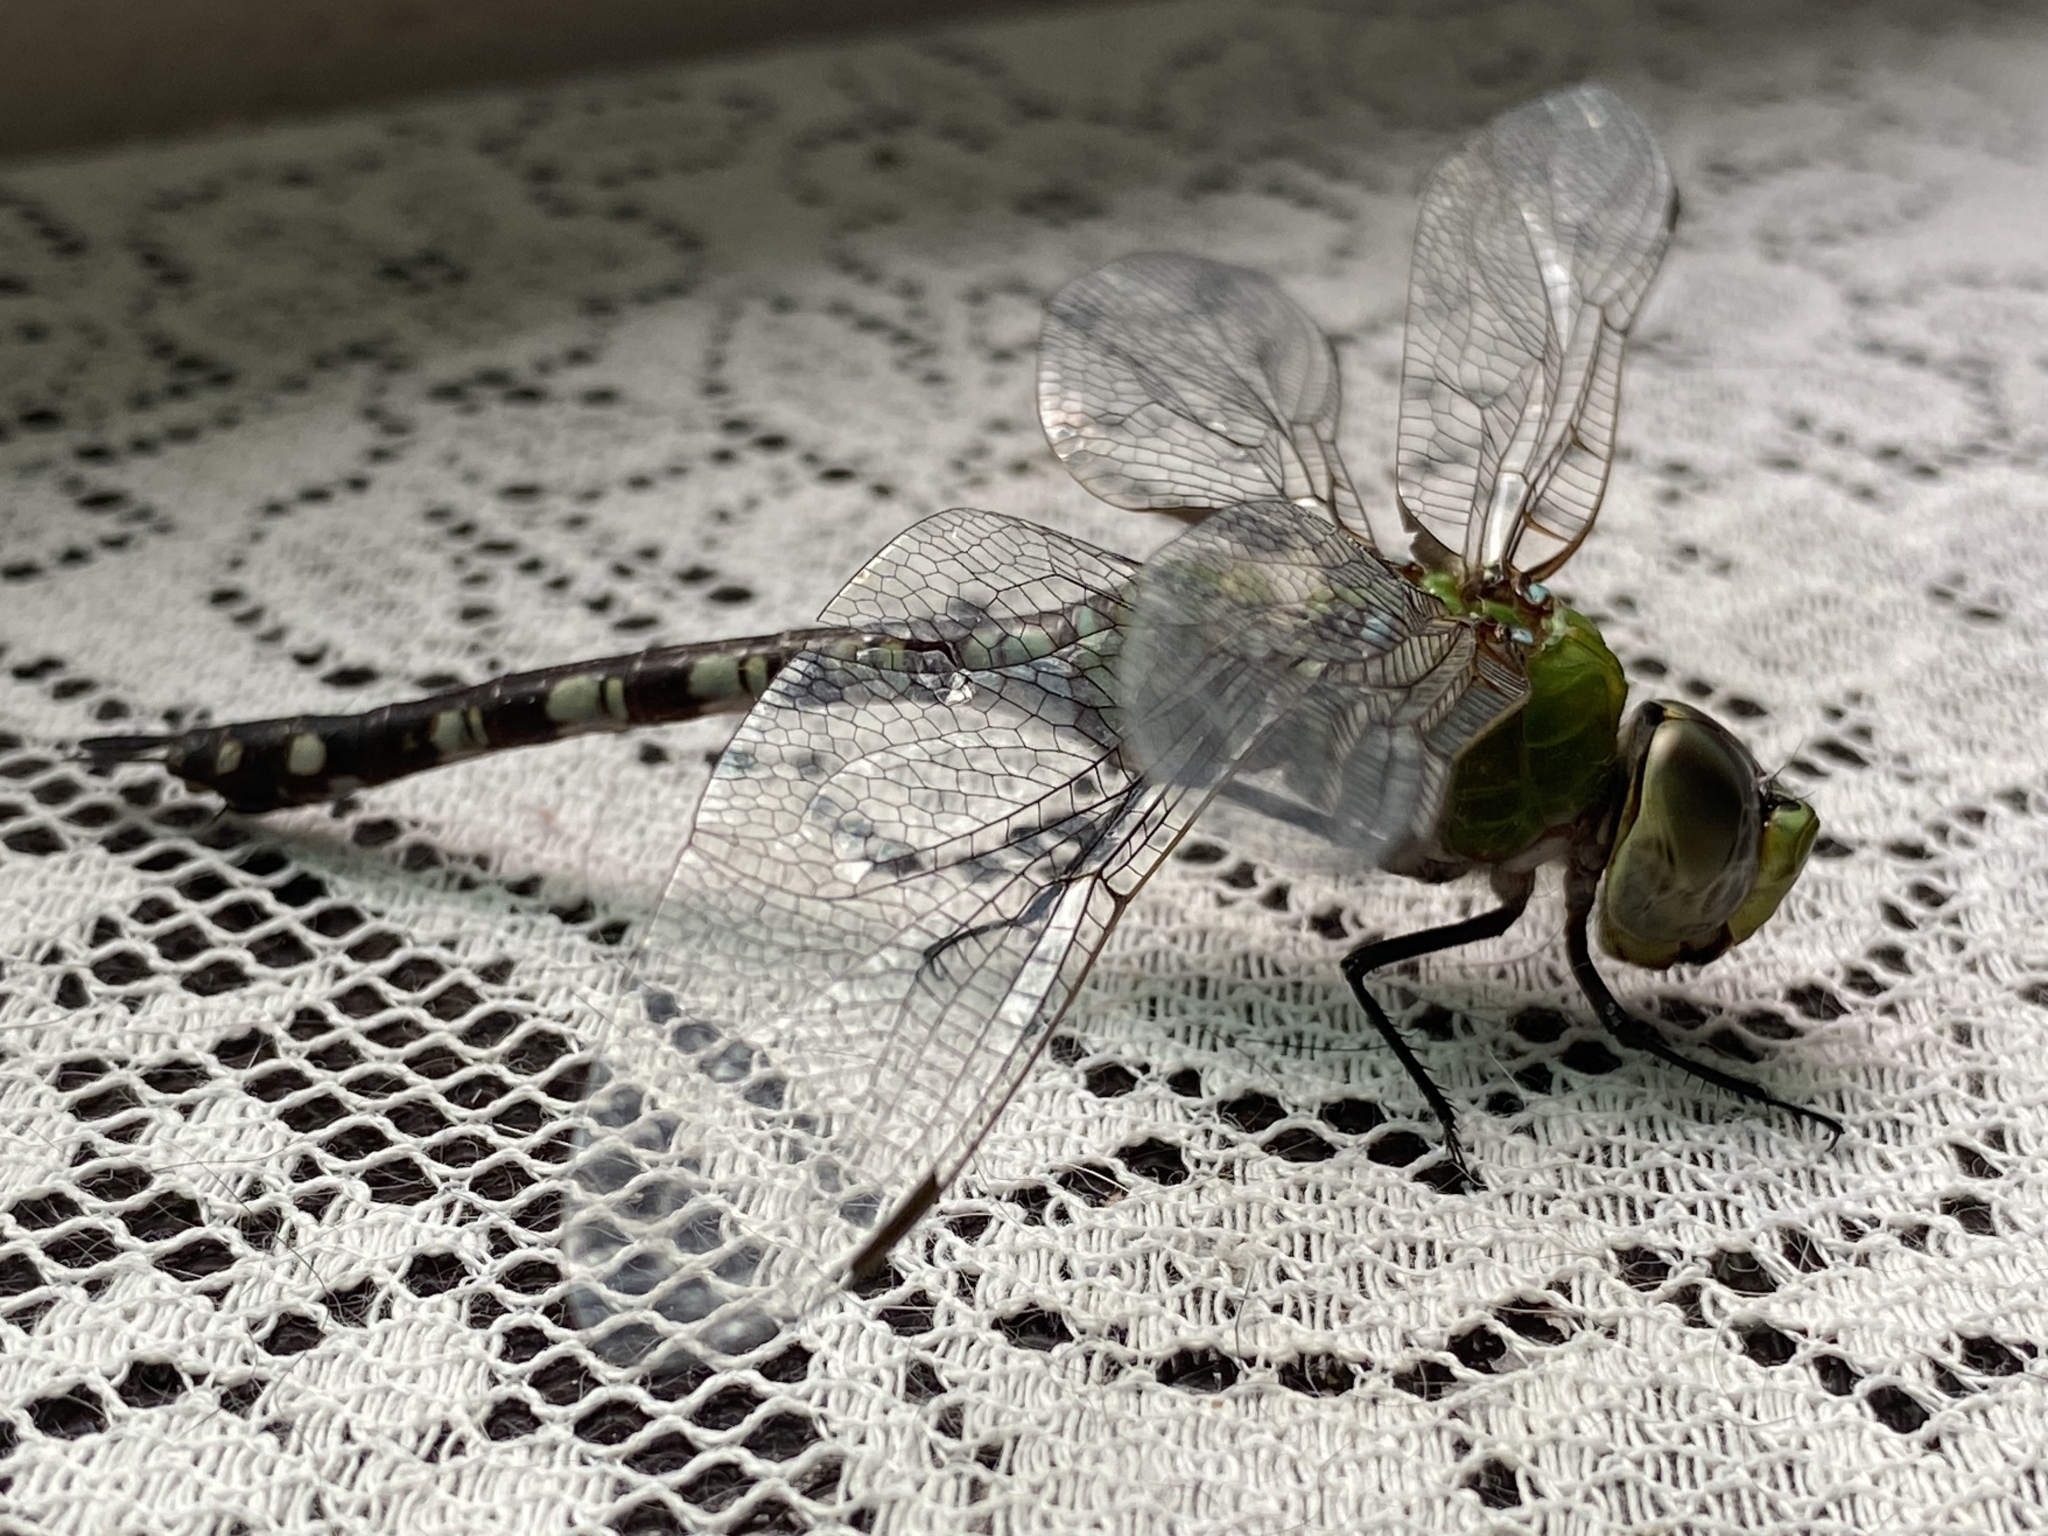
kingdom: Animalia
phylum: Arthropoda
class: Insecta
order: Odonata
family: Aeshnidae
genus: Anax
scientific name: Anax amazili
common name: Amazon darner
